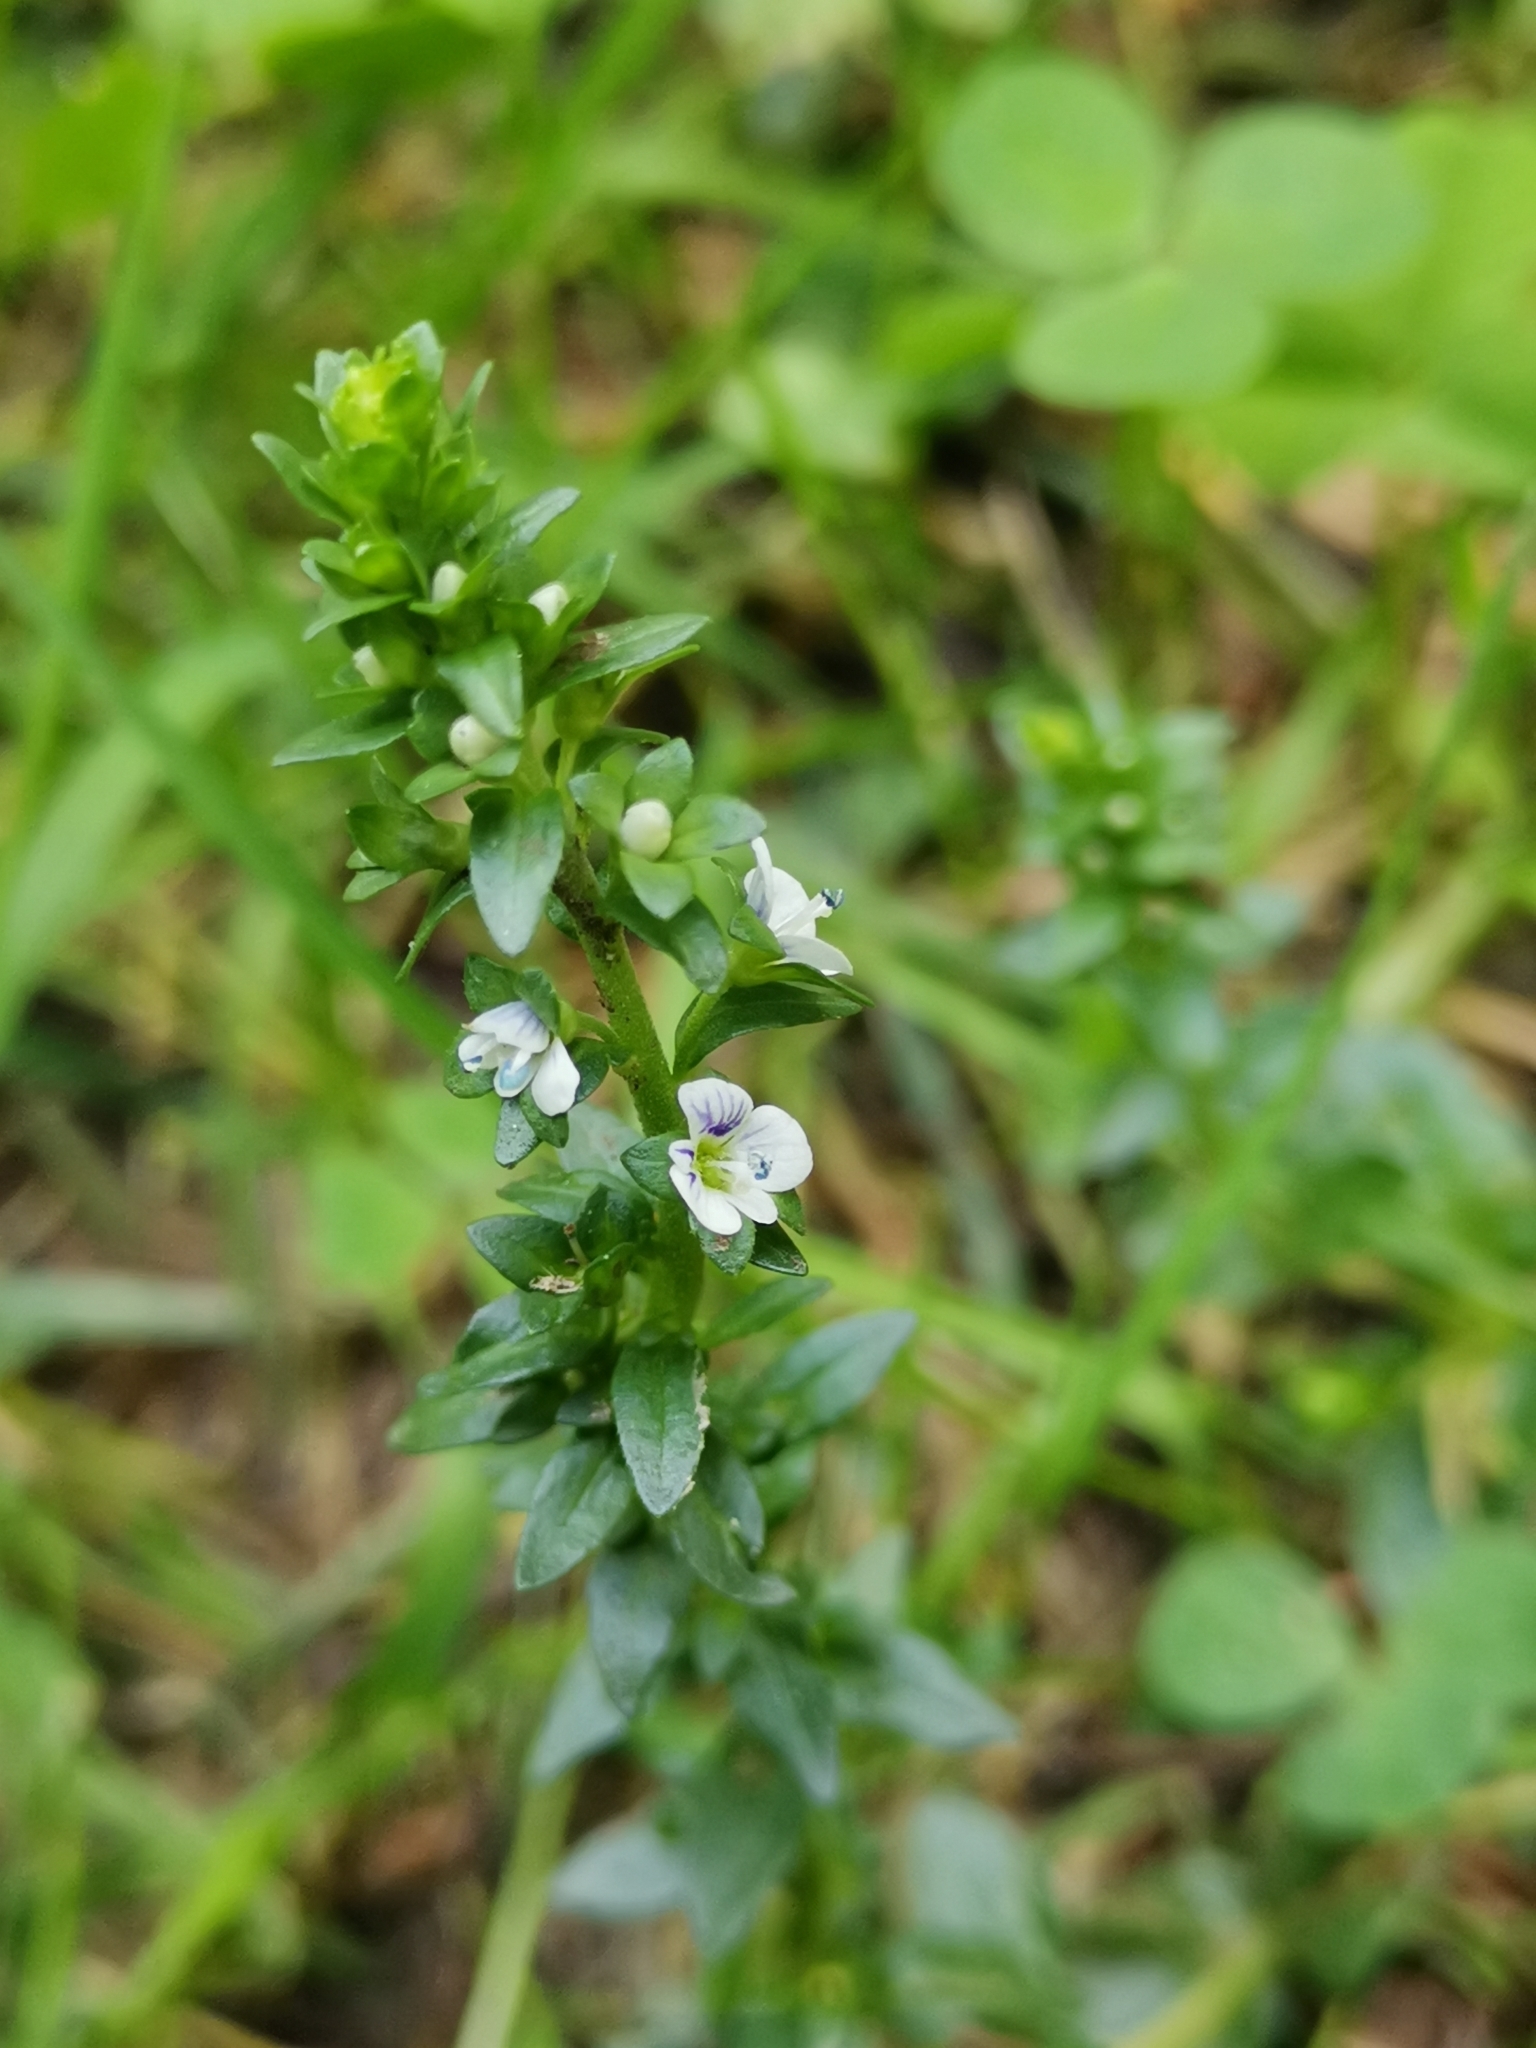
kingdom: Plantae
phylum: Tracheophyta
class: Magnoliopsida
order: Lamiales
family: Plantaginaceae
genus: Veronica
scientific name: Veronica serpyllifolia
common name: Thyme-leaved speedwell
